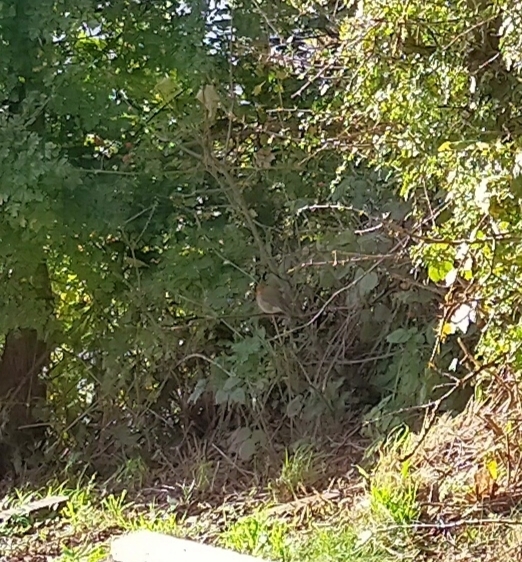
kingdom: Animalia
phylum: Chordata
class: Aves
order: Passeriformes
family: Muscicapidae
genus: Erithacus
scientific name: Erithacus rubecula
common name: European robin
